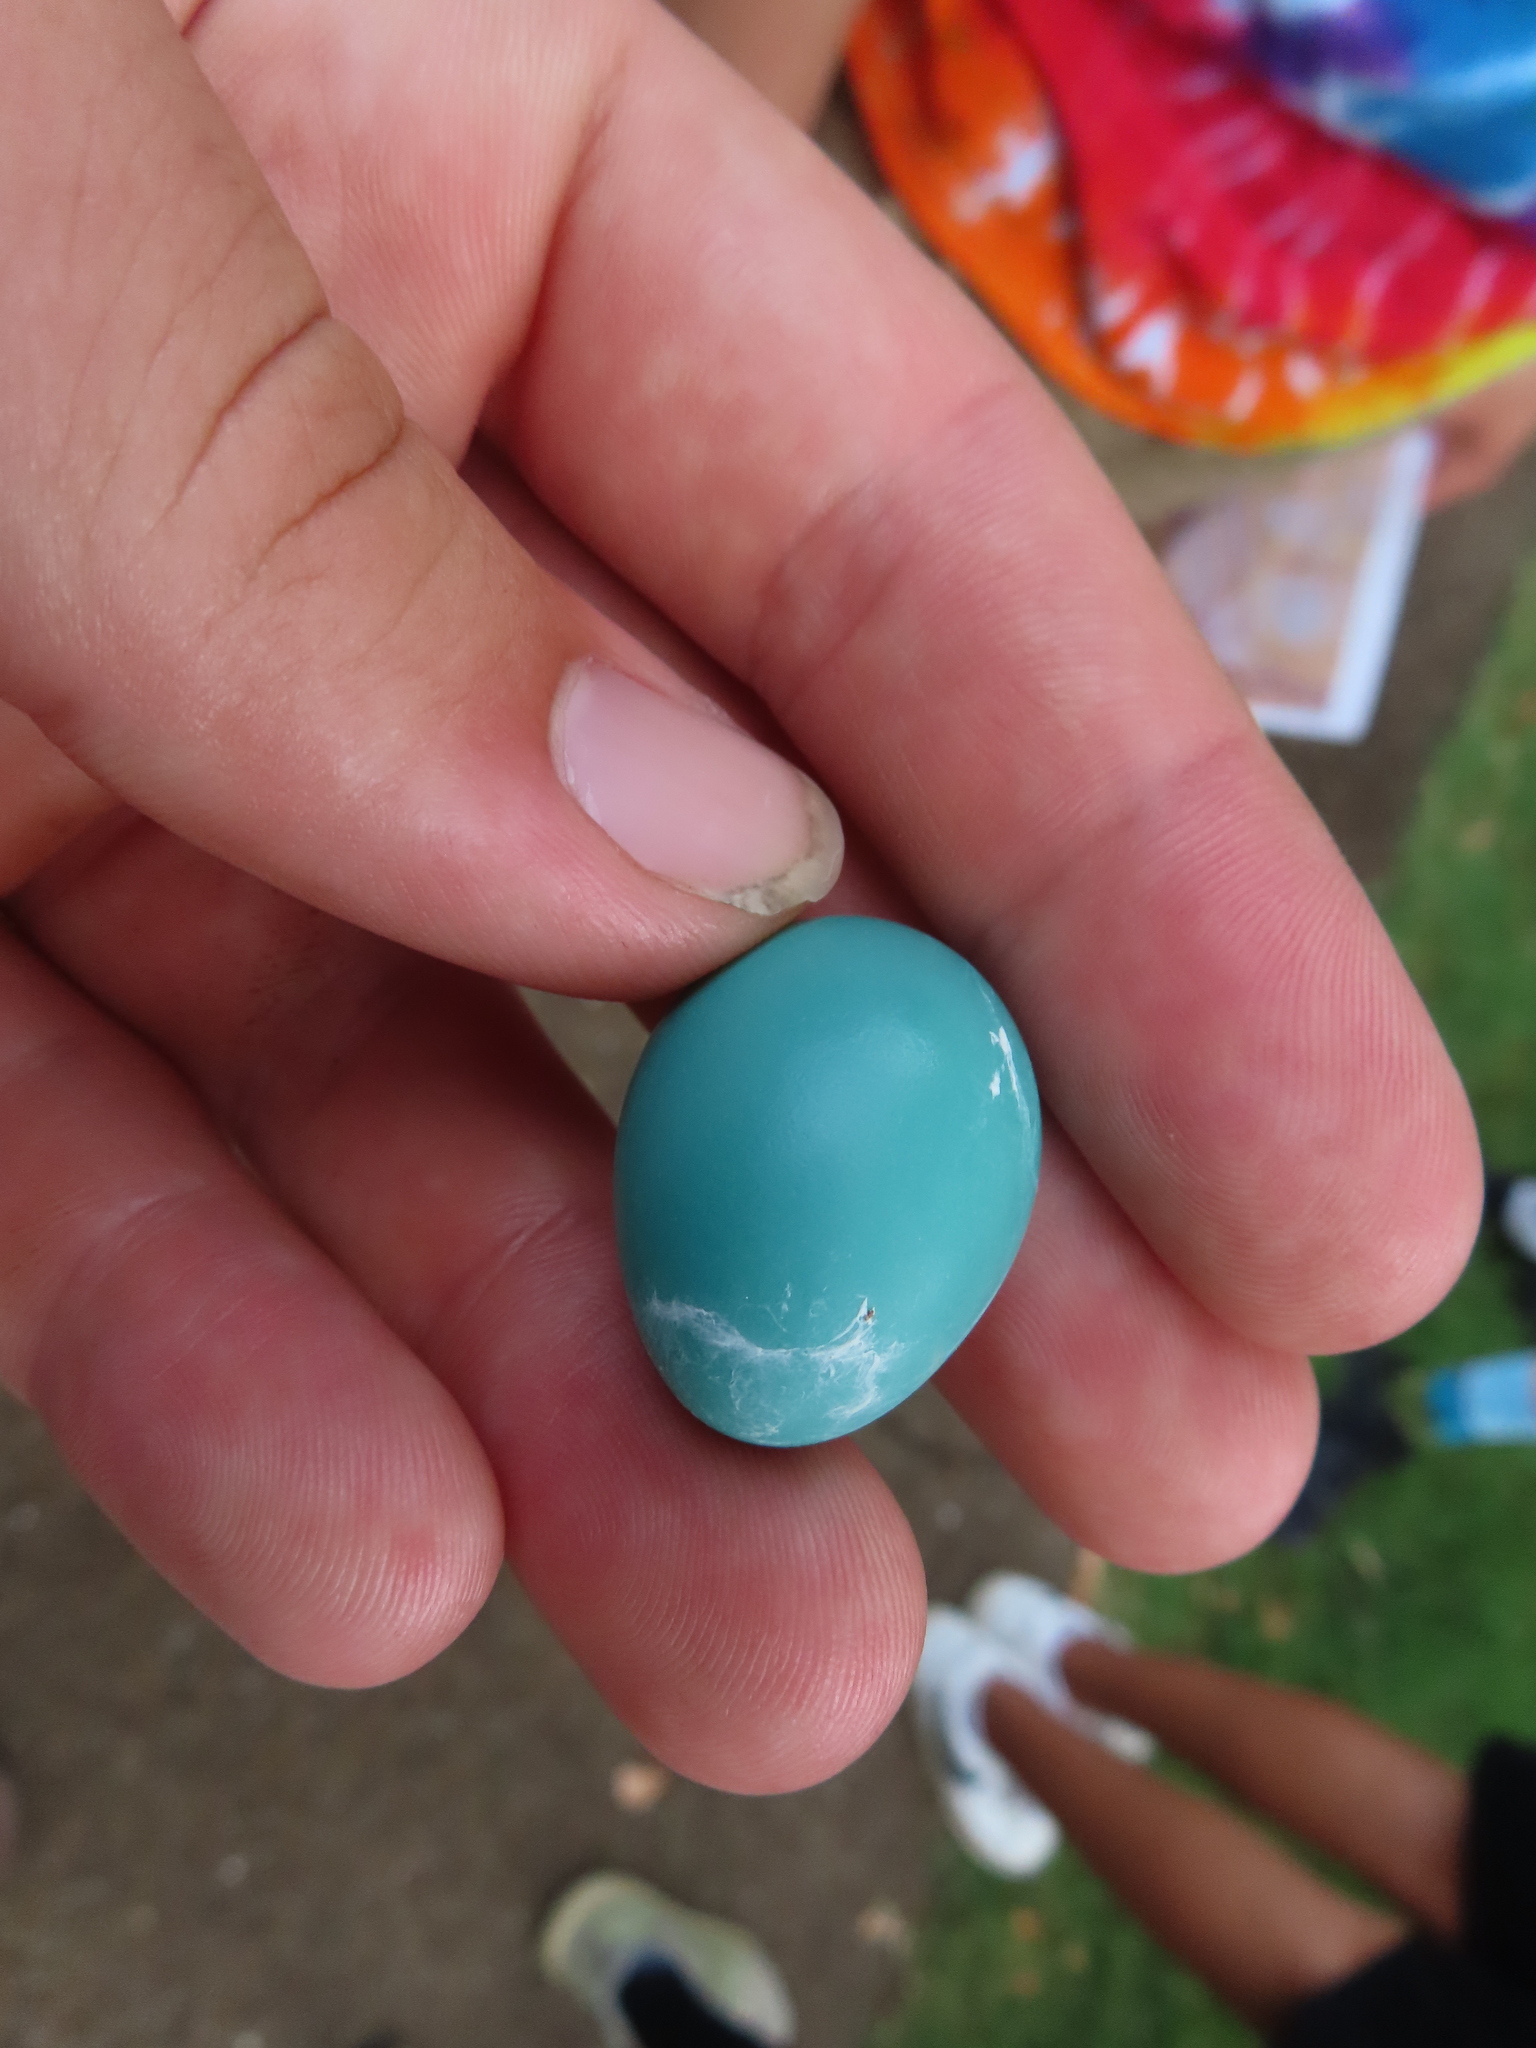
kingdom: Animalia
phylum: Chordata
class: Aves
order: Passeriformes
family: Turdidae
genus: Turdus
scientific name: Turdus migratorius
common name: American robin
